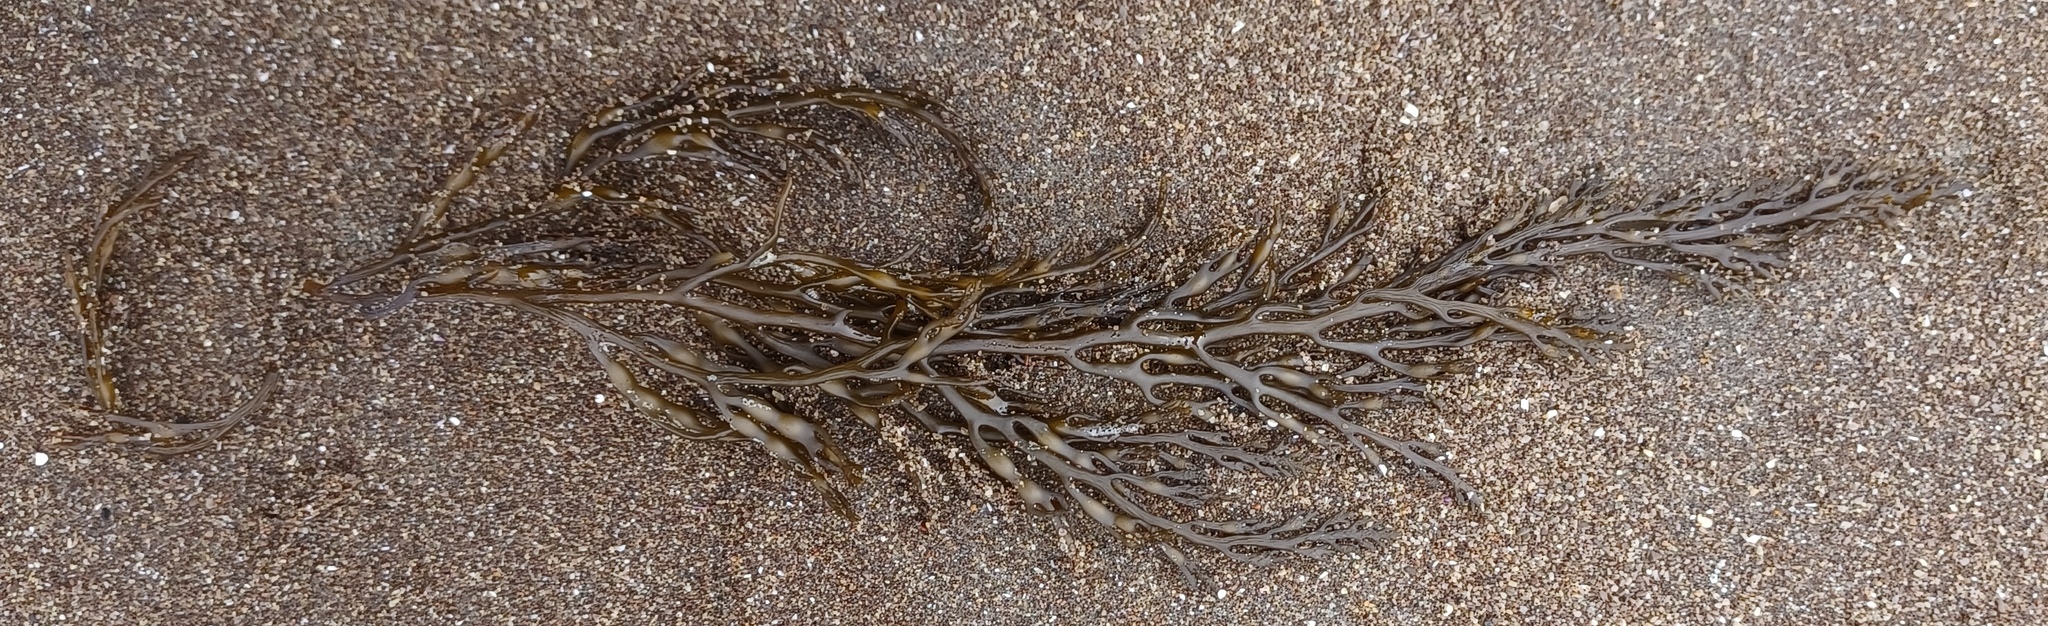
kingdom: Chromista
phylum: Ochrophyta
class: Phaeophyceae
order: Fucales
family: Sargassaceae
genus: Stephanocystis
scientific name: Stephanocystis
